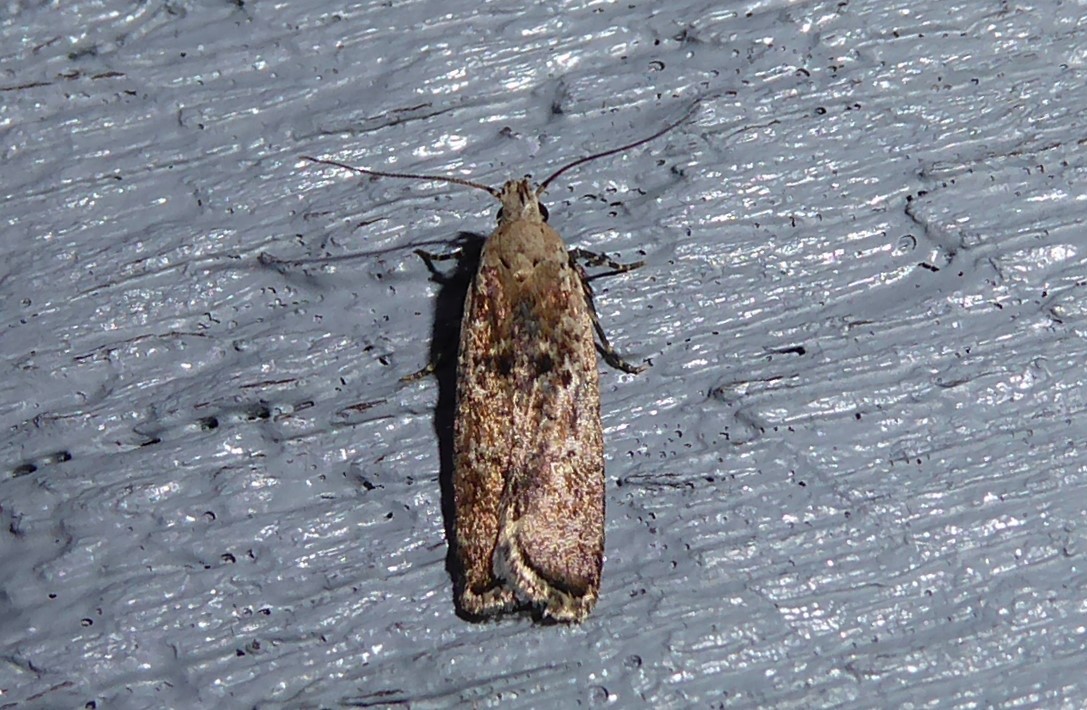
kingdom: Animalia
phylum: Arthropoda
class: Insecta
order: Lepidoptera
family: Gelechiidae
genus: Anisoplaca
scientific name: Anisoplaca achyrota
